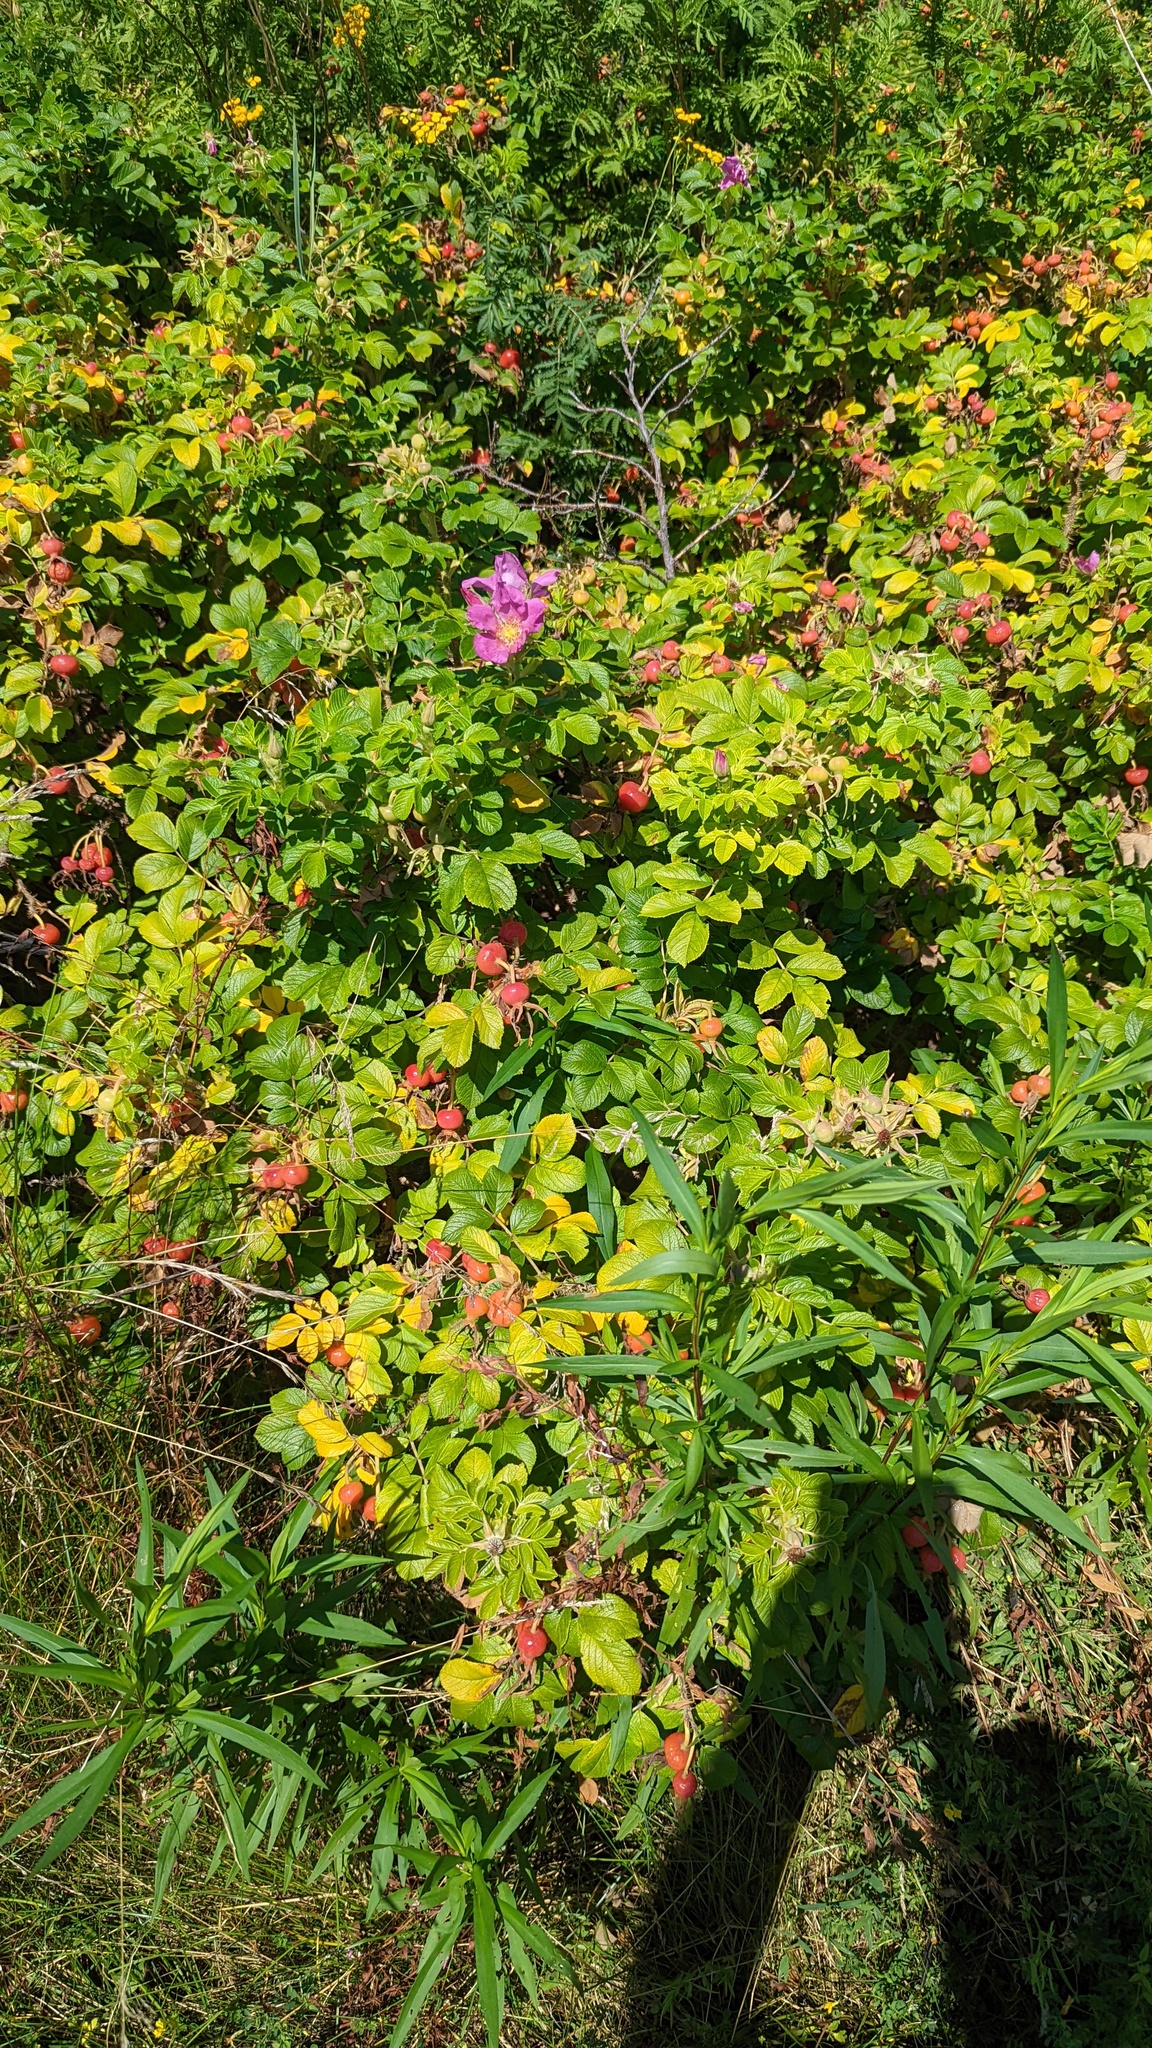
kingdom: Plantae
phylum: Tracheophyta
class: Magnoliopsida
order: Rosales
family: Rosaceae
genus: Rosa
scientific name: Rosa rugosa
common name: Japanese rose
